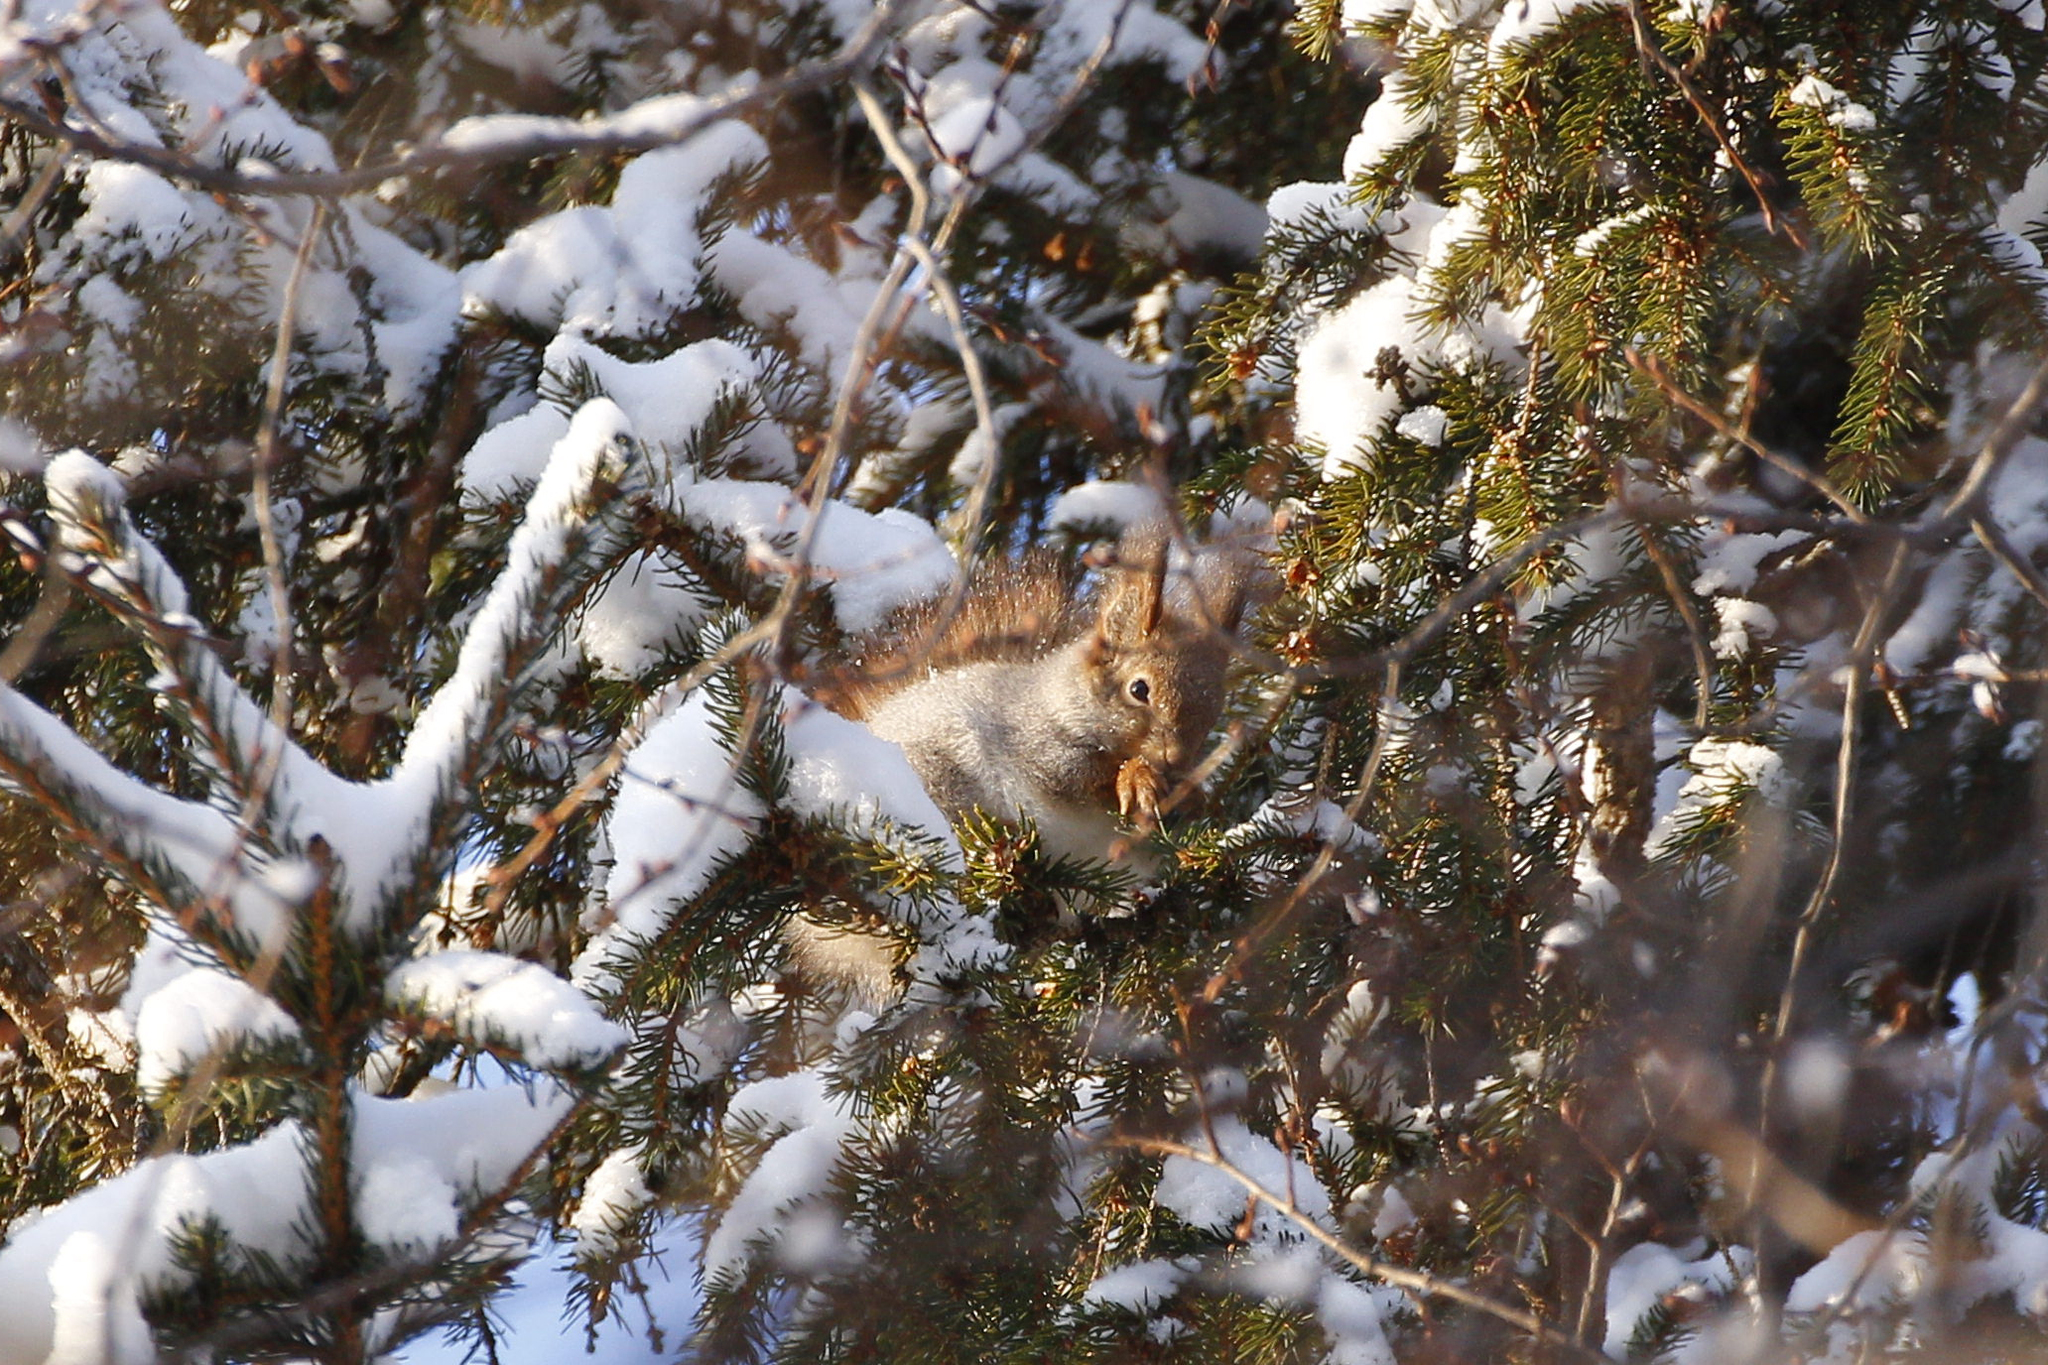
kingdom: Animalia
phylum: Chordata
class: Mammalia
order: Rodentia
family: Sciuridae
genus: Sciurus
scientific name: Sciurus vulgaris
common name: Eurasian red squirrel
